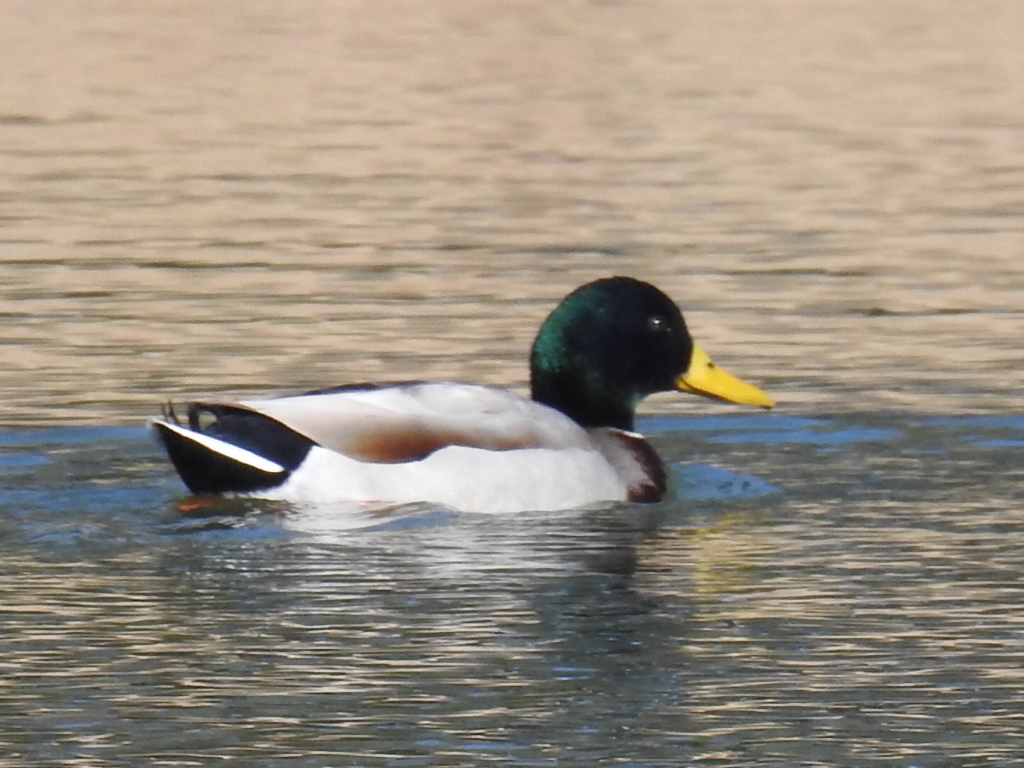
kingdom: Animalia
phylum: Chordata
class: Aves
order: Anseriformes
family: Anatidae
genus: Anas
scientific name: Anas platyrhynchos
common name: Mallard
